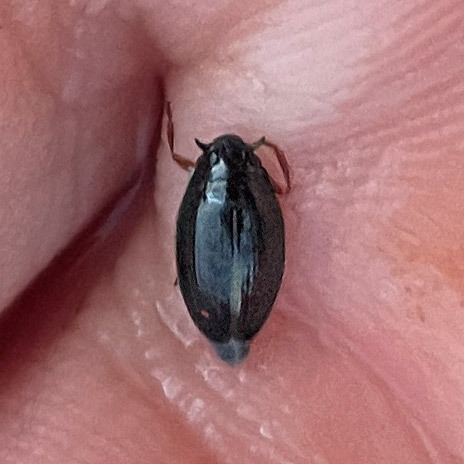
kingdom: Animalia
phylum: Arthropoda
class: Insecta
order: Coleoptera
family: Gyrinidae
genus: Gyrinus
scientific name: Gyrinus
